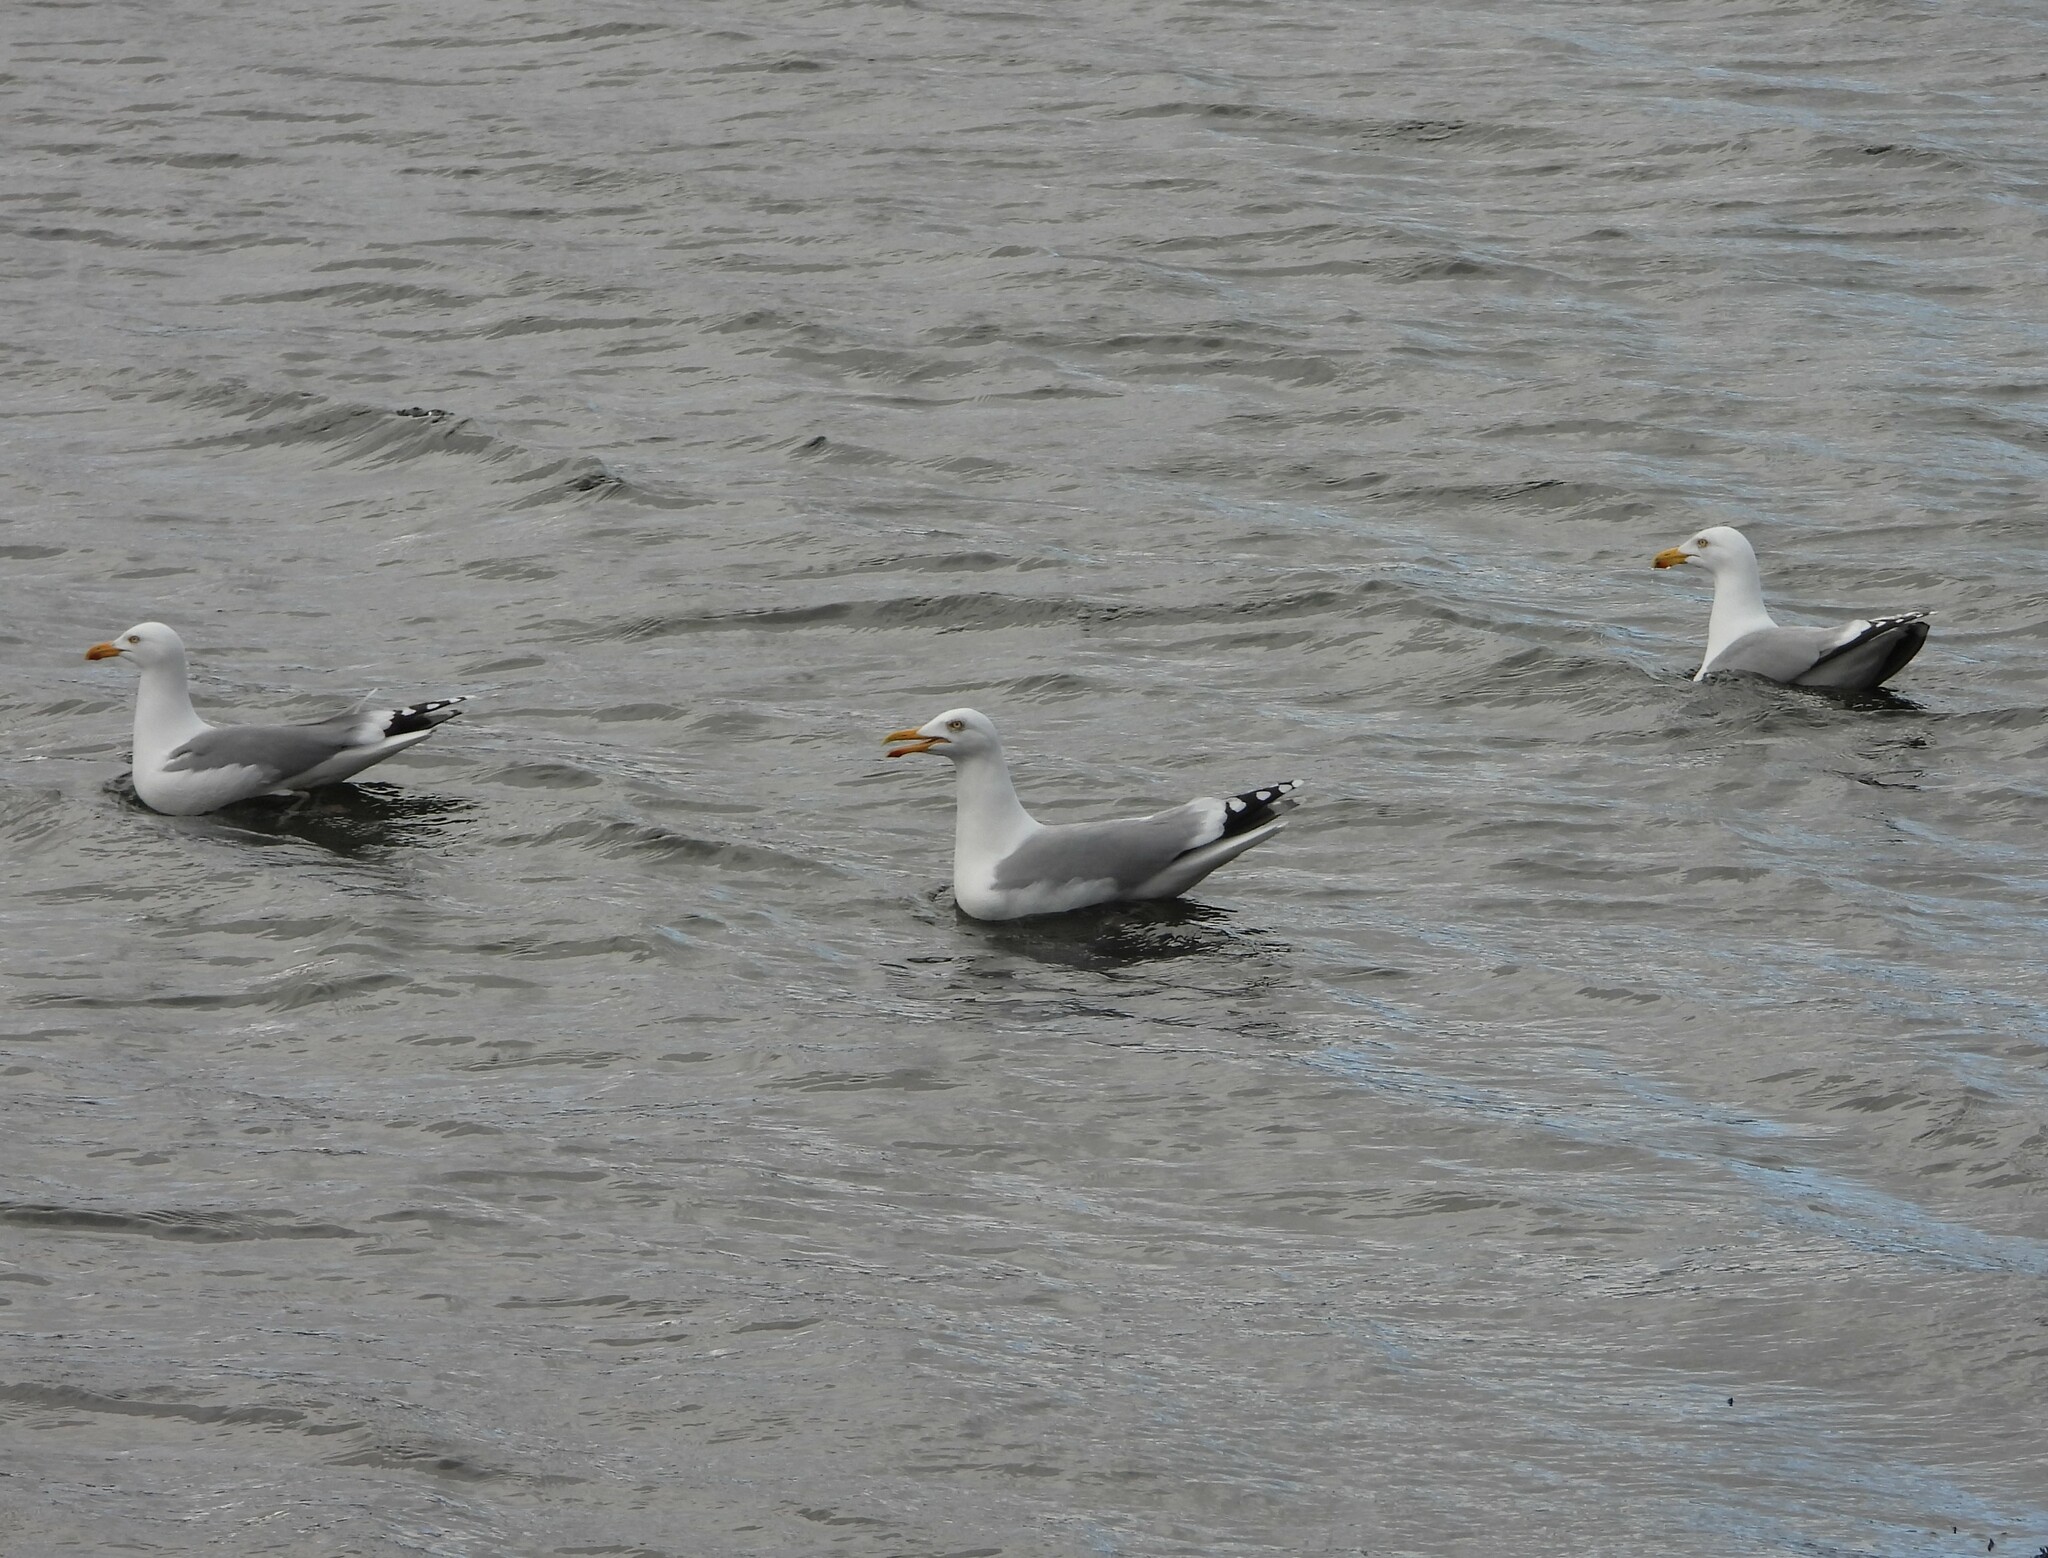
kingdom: Animalia
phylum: Chordata
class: Aves
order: Charadriiformes
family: Laridae
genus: Larus
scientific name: Larus argentatus
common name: Herring gull
